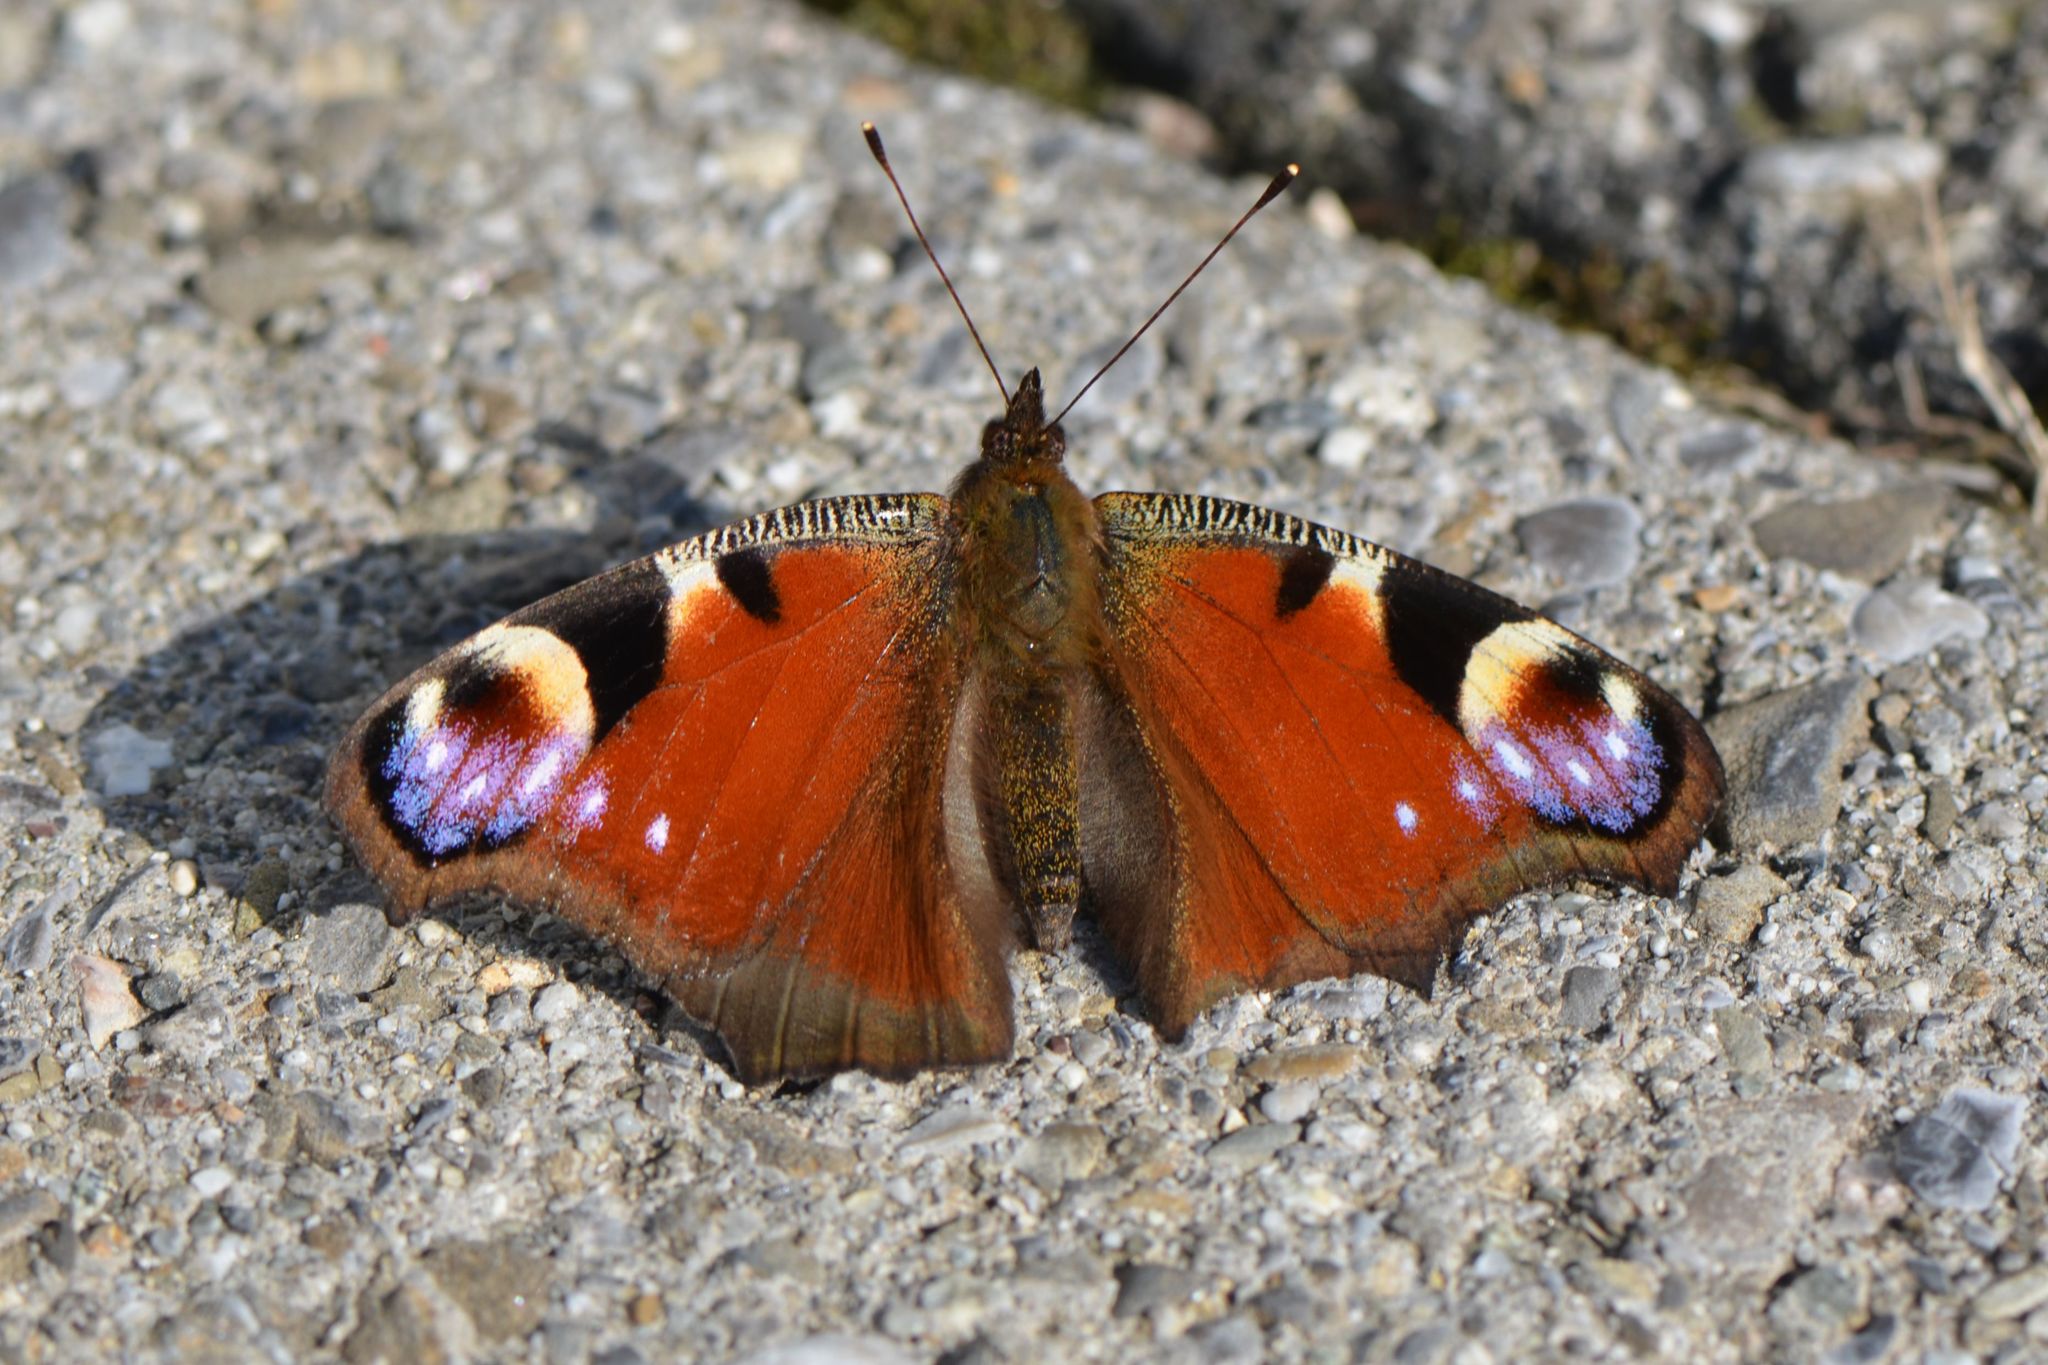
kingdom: Animalia
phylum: Arthropoda
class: Insecta
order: Lepidoptera
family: Nymphalidae
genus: Aglais
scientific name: Aglais io
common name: Peacock
